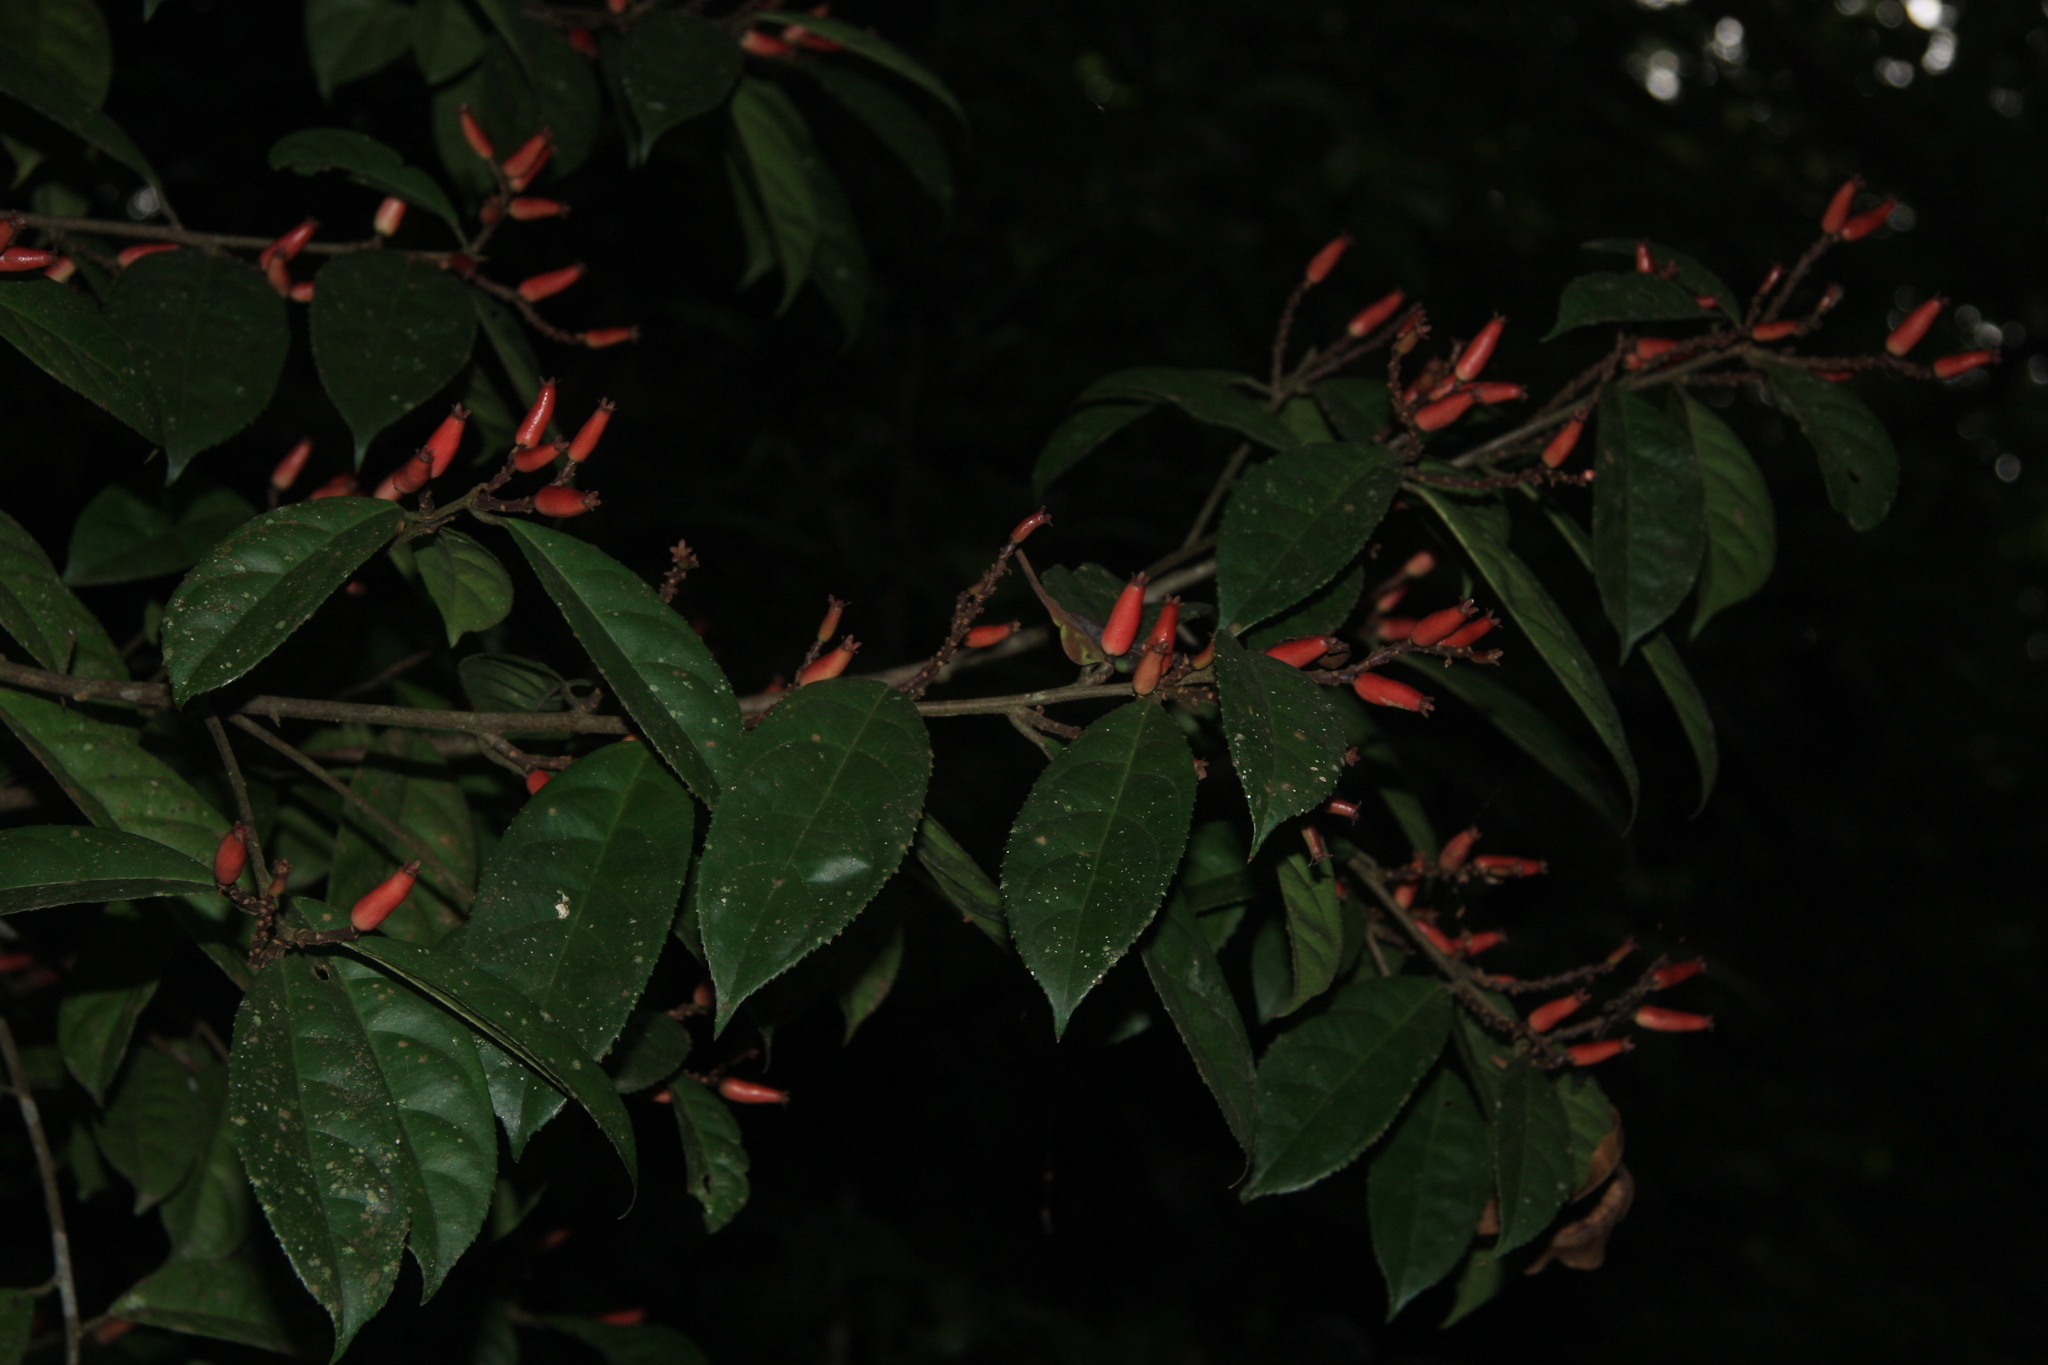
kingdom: Plantae
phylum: Tracheophyta
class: Magnoliopsida
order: Ericales
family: Symplocaceae
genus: Symplocos
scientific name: Symplocos macrophylla
